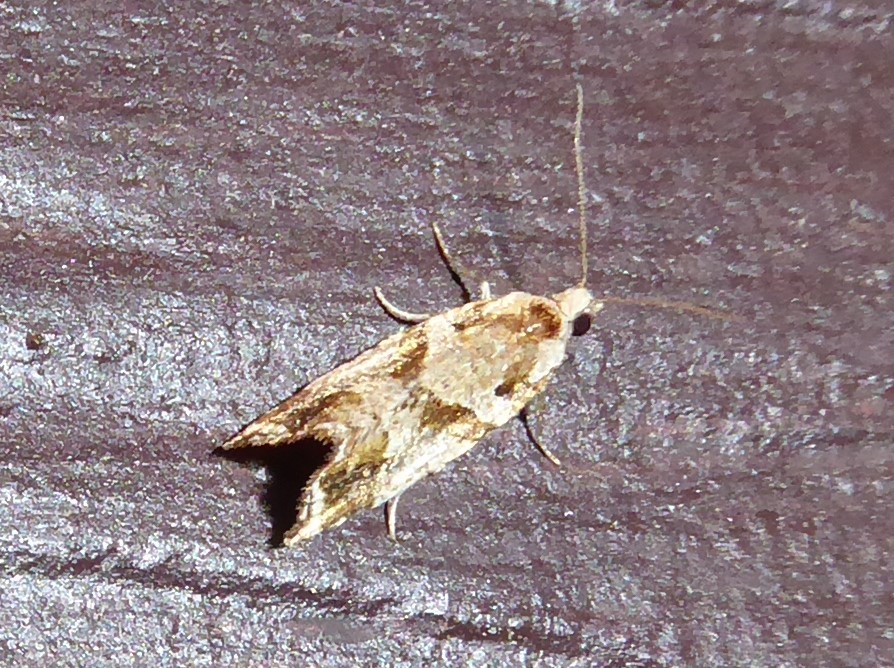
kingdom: Animalia
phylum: Arthropoda
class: Insecta
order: Lepidoptera
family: Tortricidae
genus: Pyrgotis
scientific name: Pyrgotis plagiatana
